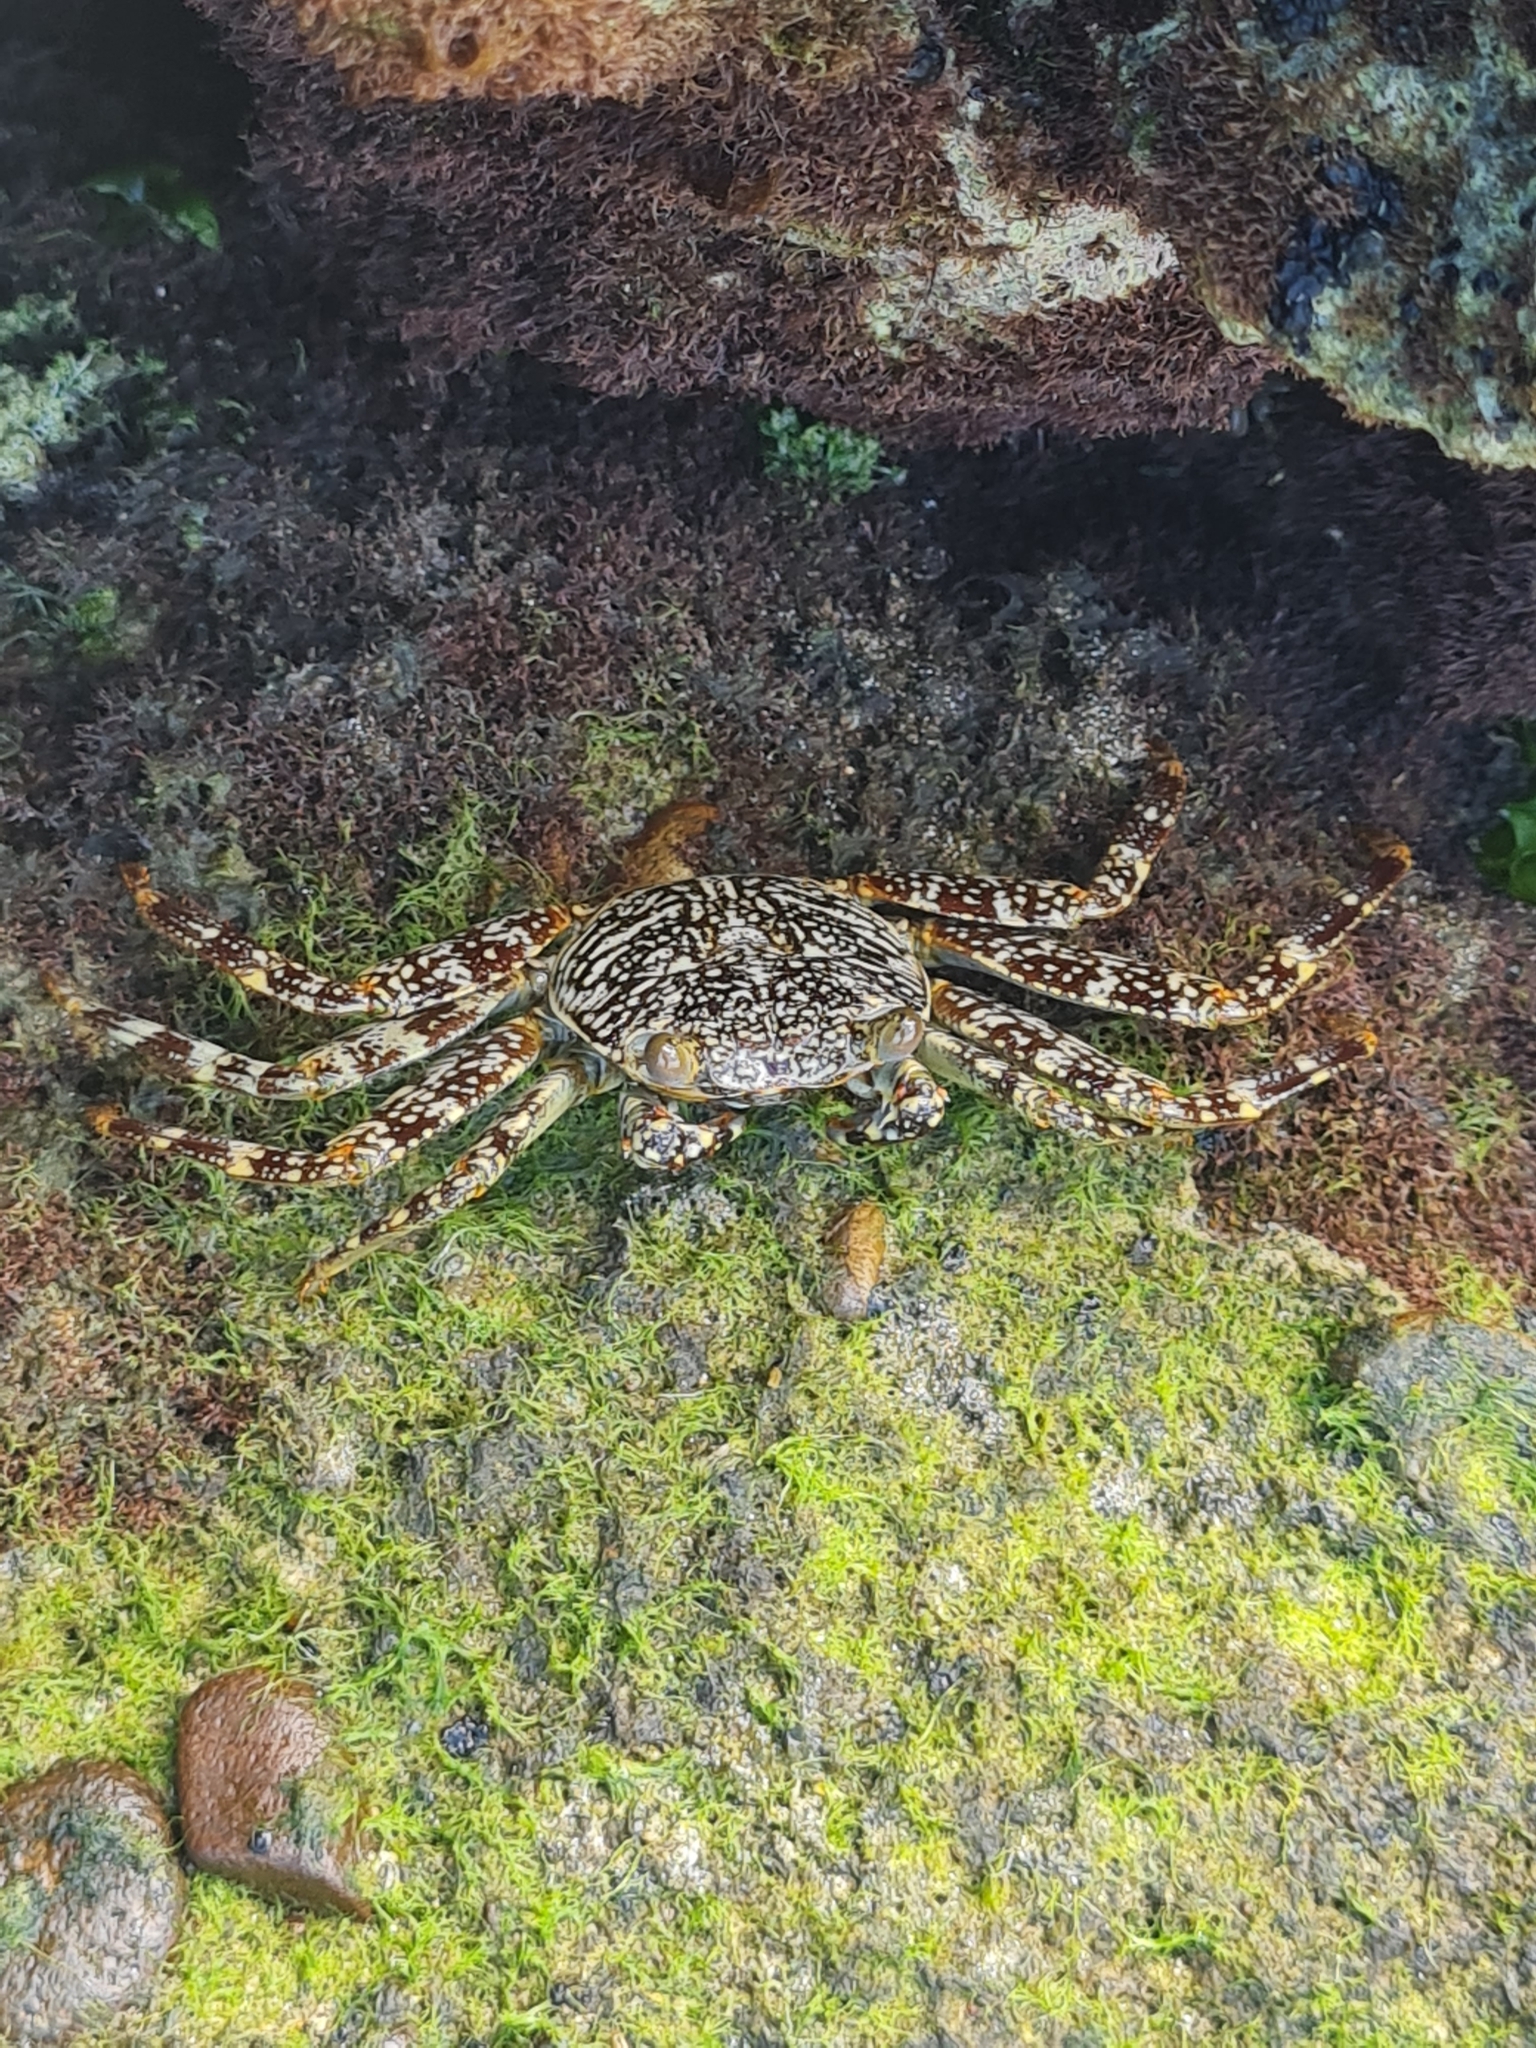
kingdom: Animalia
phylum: Arthropoda
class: Malacostraca
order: Decapoda
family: Grapsidae
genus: Grapsus
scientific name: Grapsus grapsus
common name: Sally lightfoot
